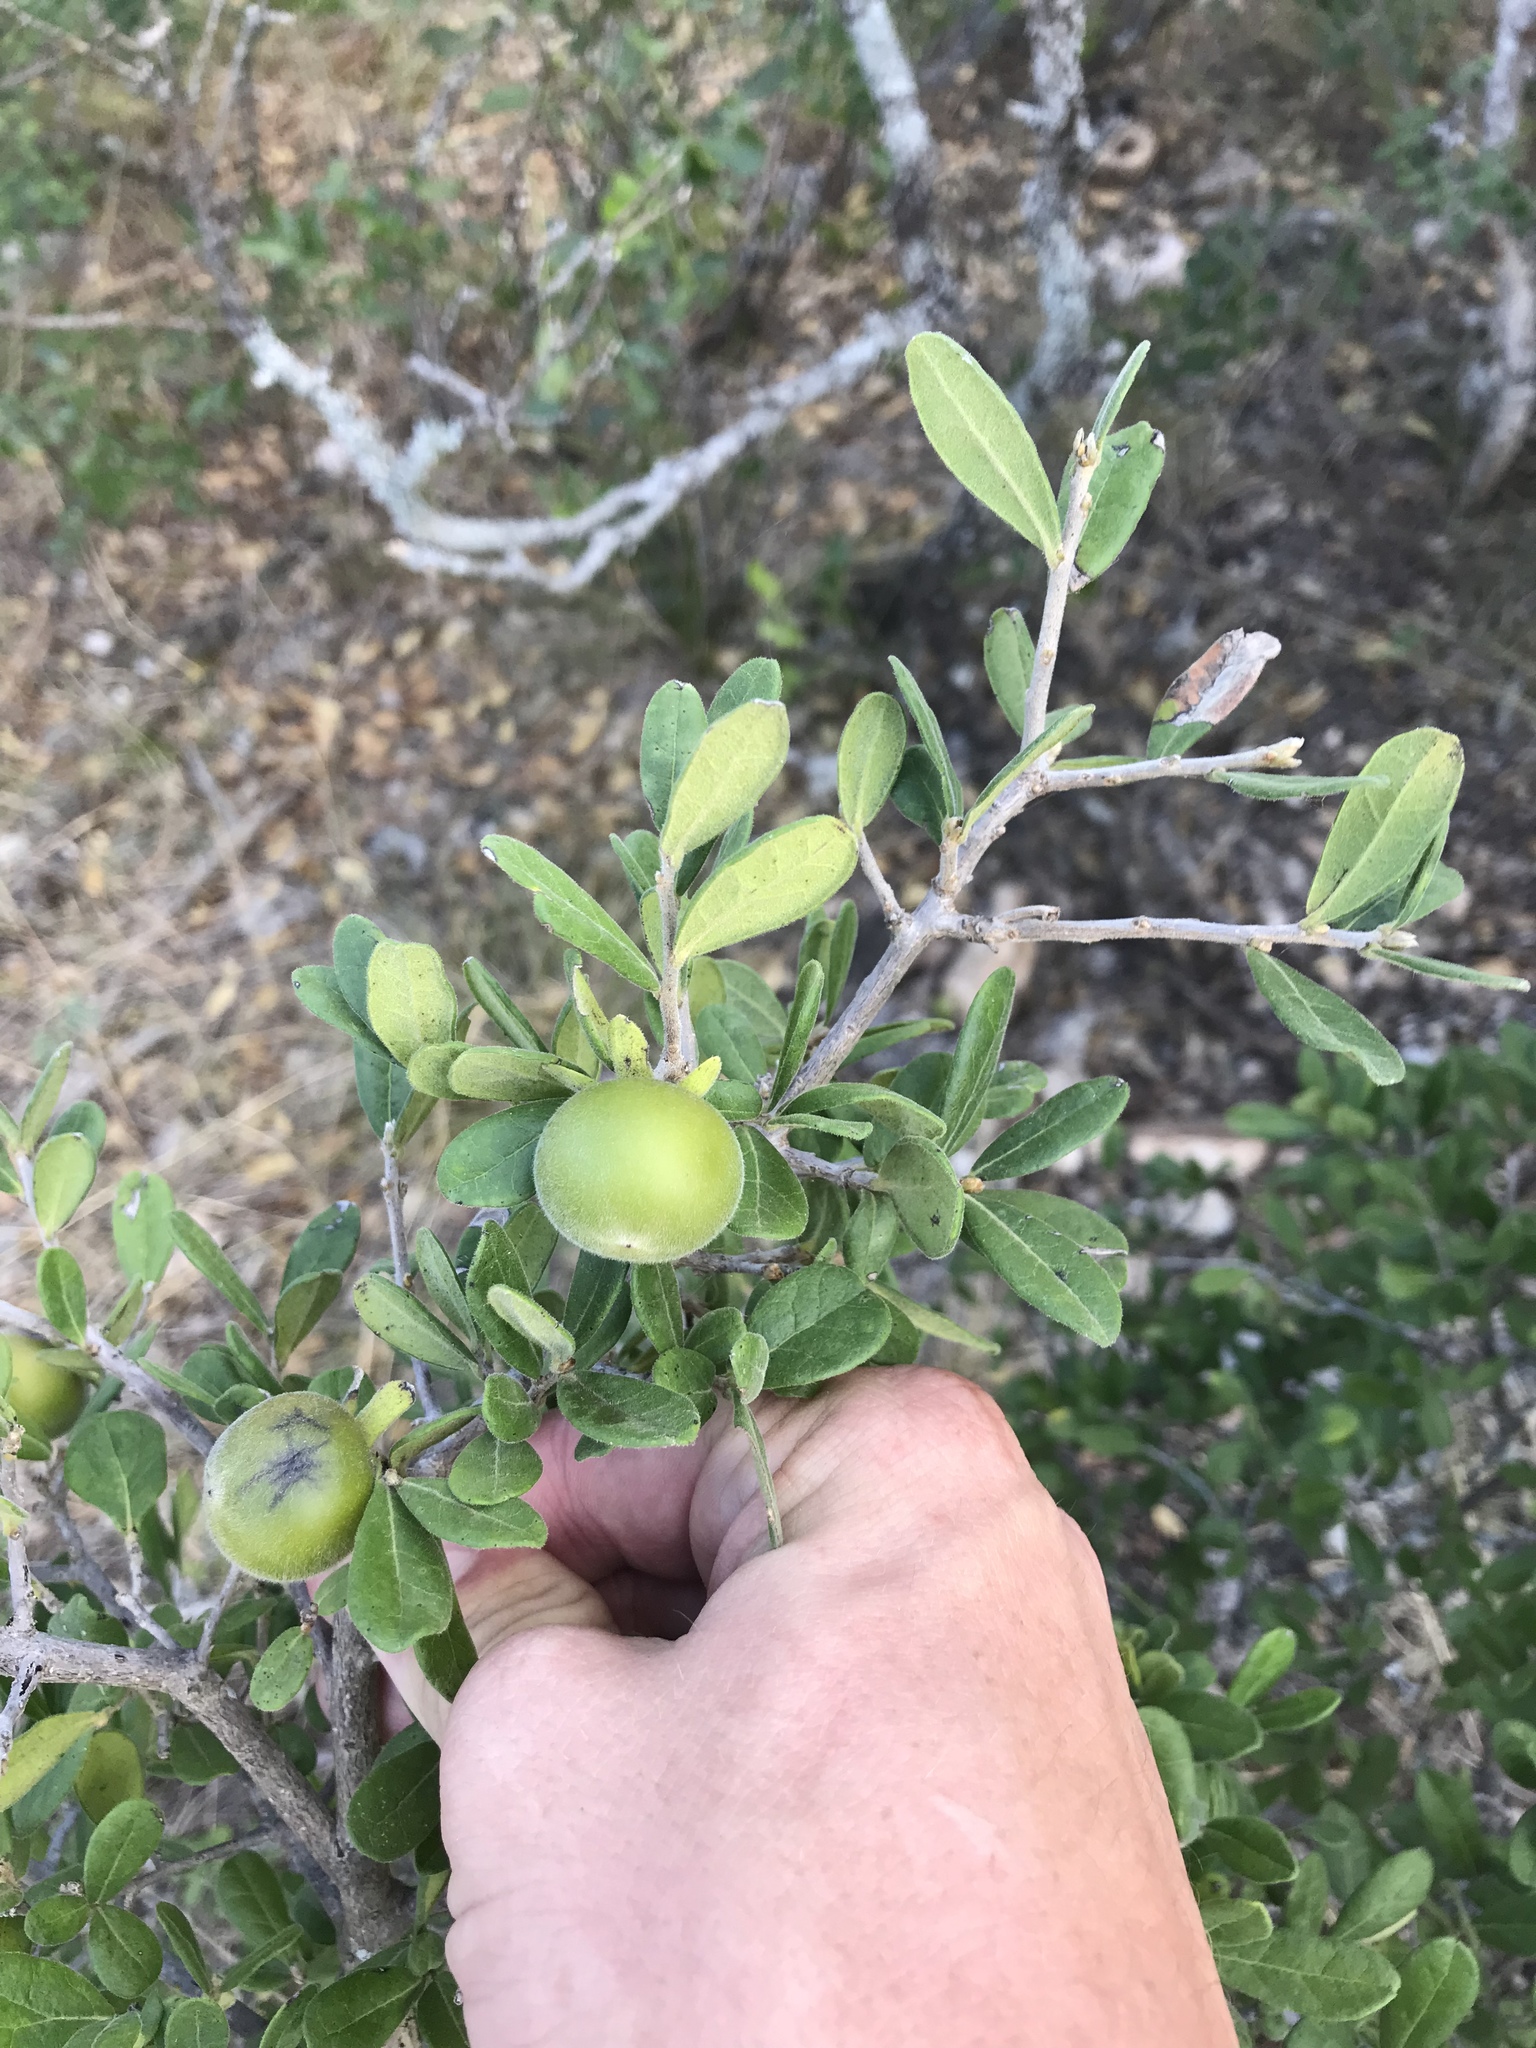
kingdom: Plantae
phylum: Tracheophyta
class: Magnoliopsida
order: Ericales
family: Ebenaceae
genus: Diospyros
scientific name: Diospyros texana
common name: Texas persimmon
